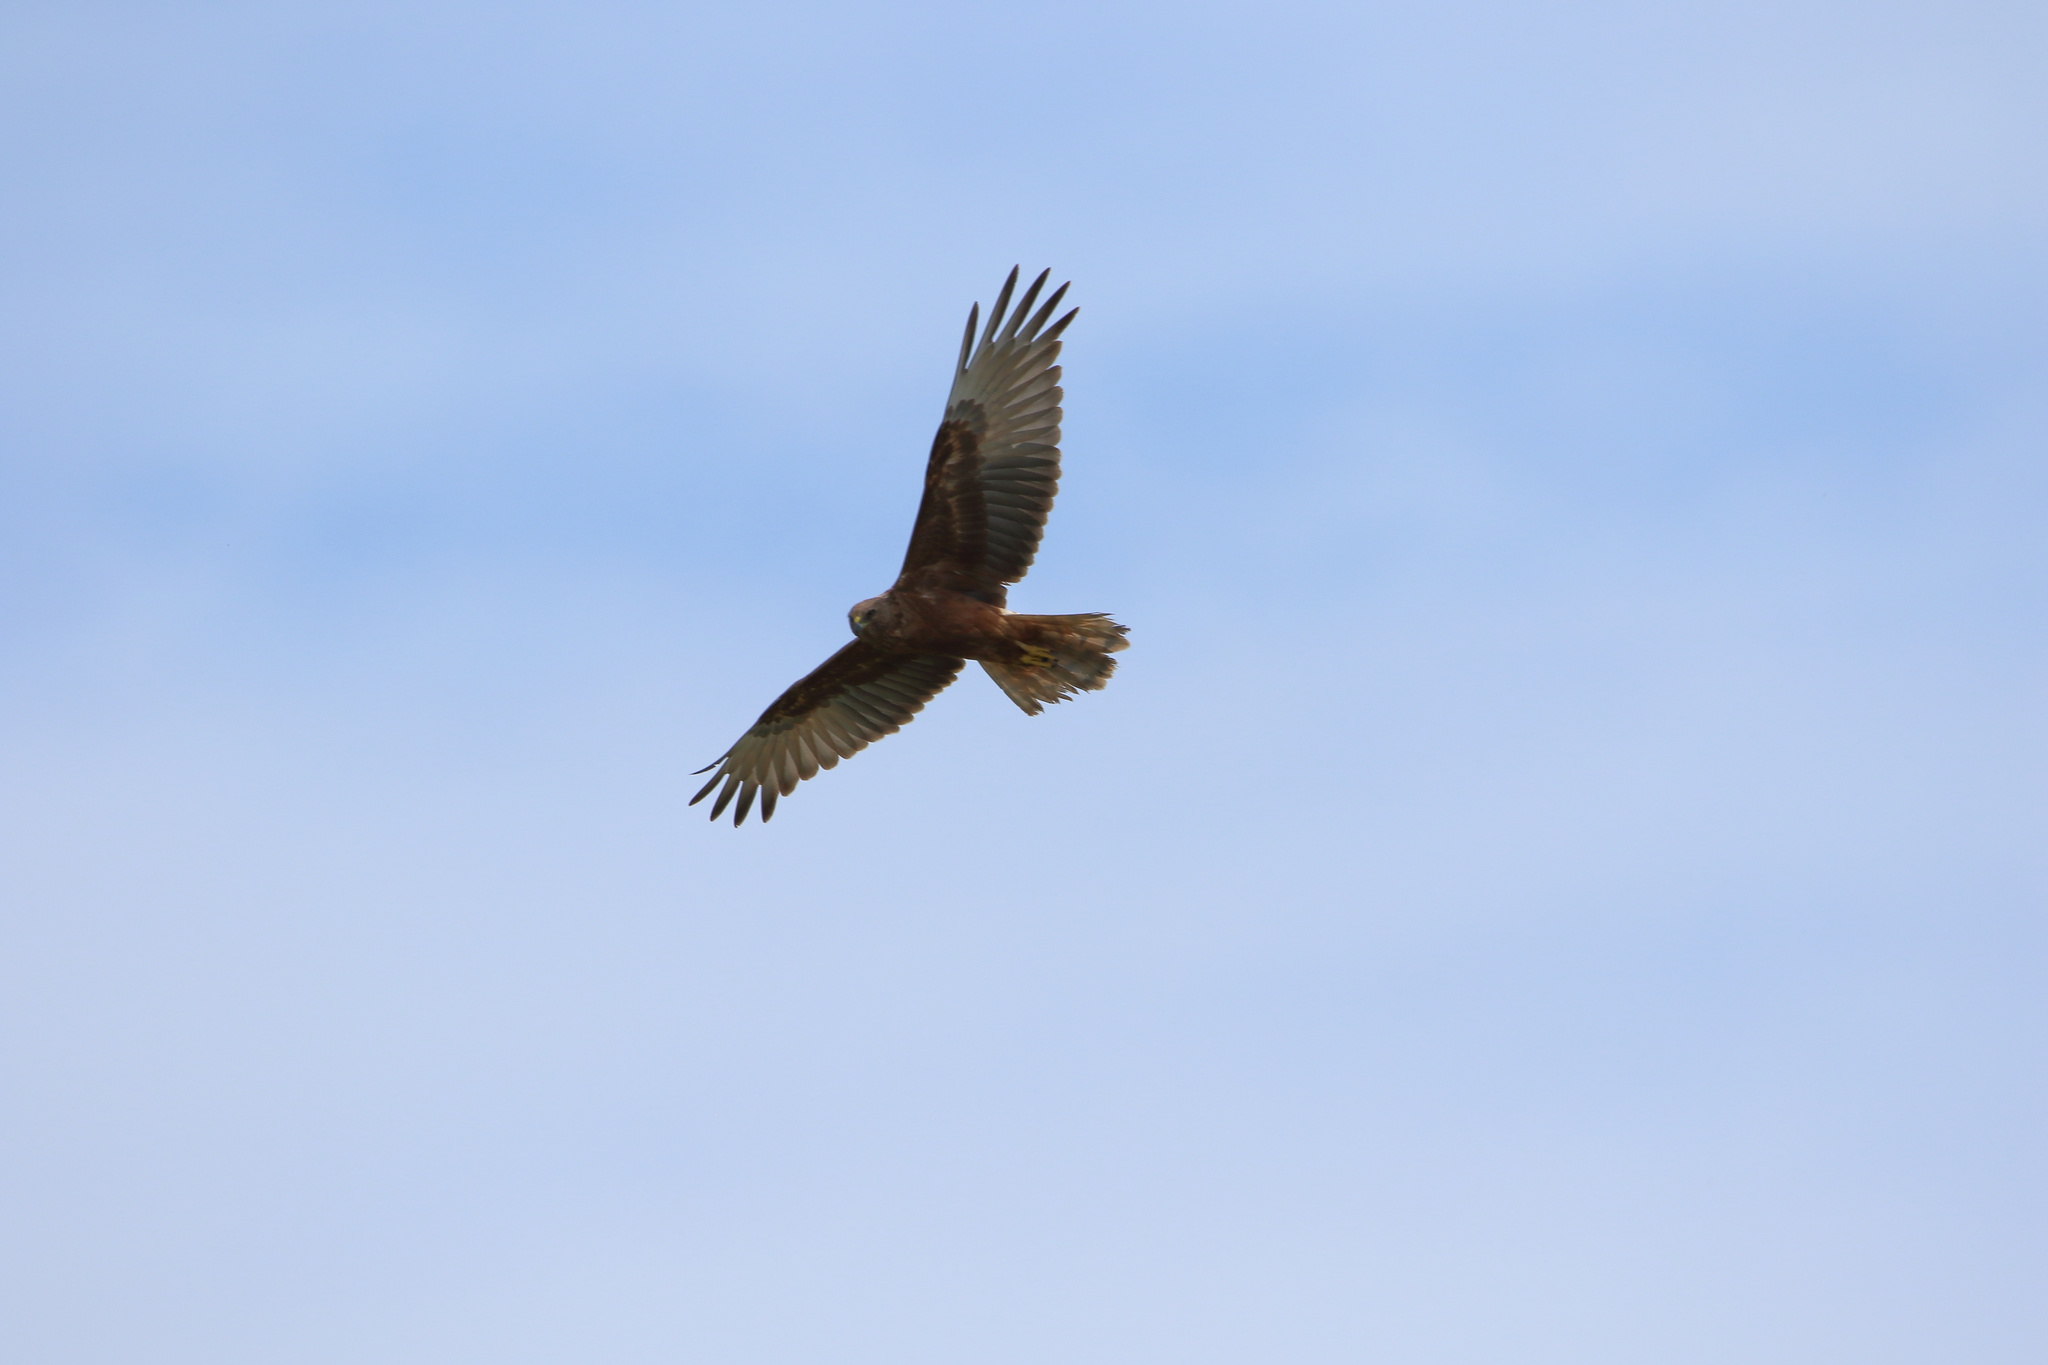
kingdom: Animalia
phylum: Chordata
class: Aves
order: Accipitriformes
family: Accipitridae
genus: Circus
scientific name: Circus approximans
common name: Swamp harrier
